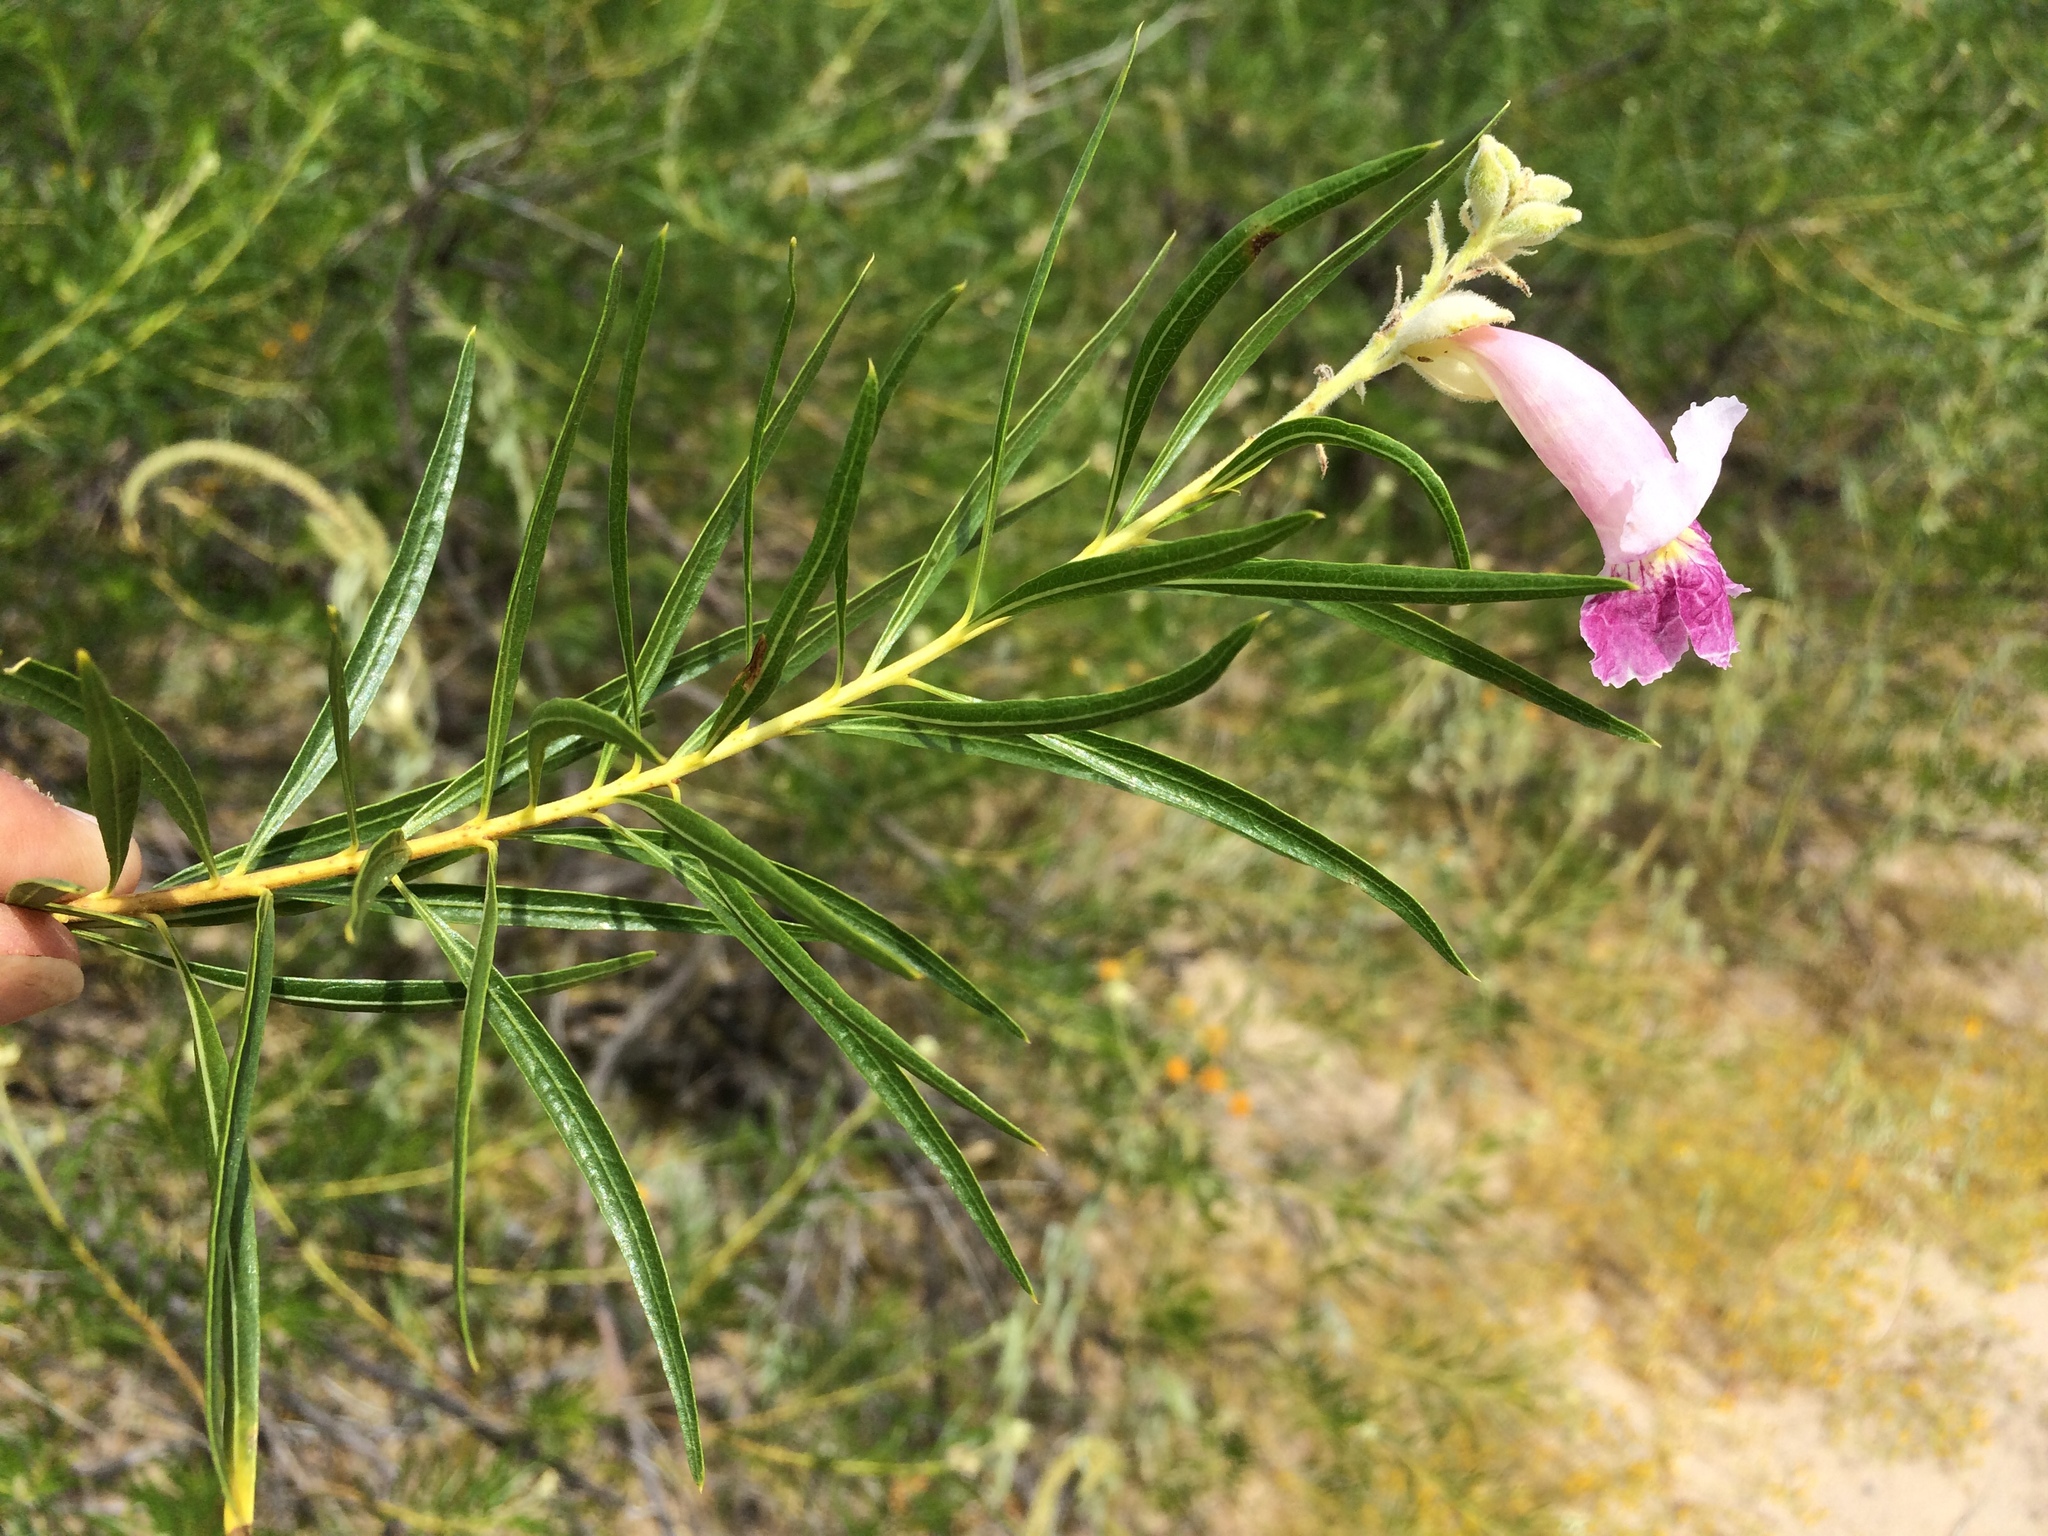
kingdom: Plantae
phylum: Tracheophyta
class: Magnoliopsida
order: Lamiales
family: Bignoniaceae
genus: Chilopsis
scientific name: Chilopsis linearis
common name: Desert-willow
